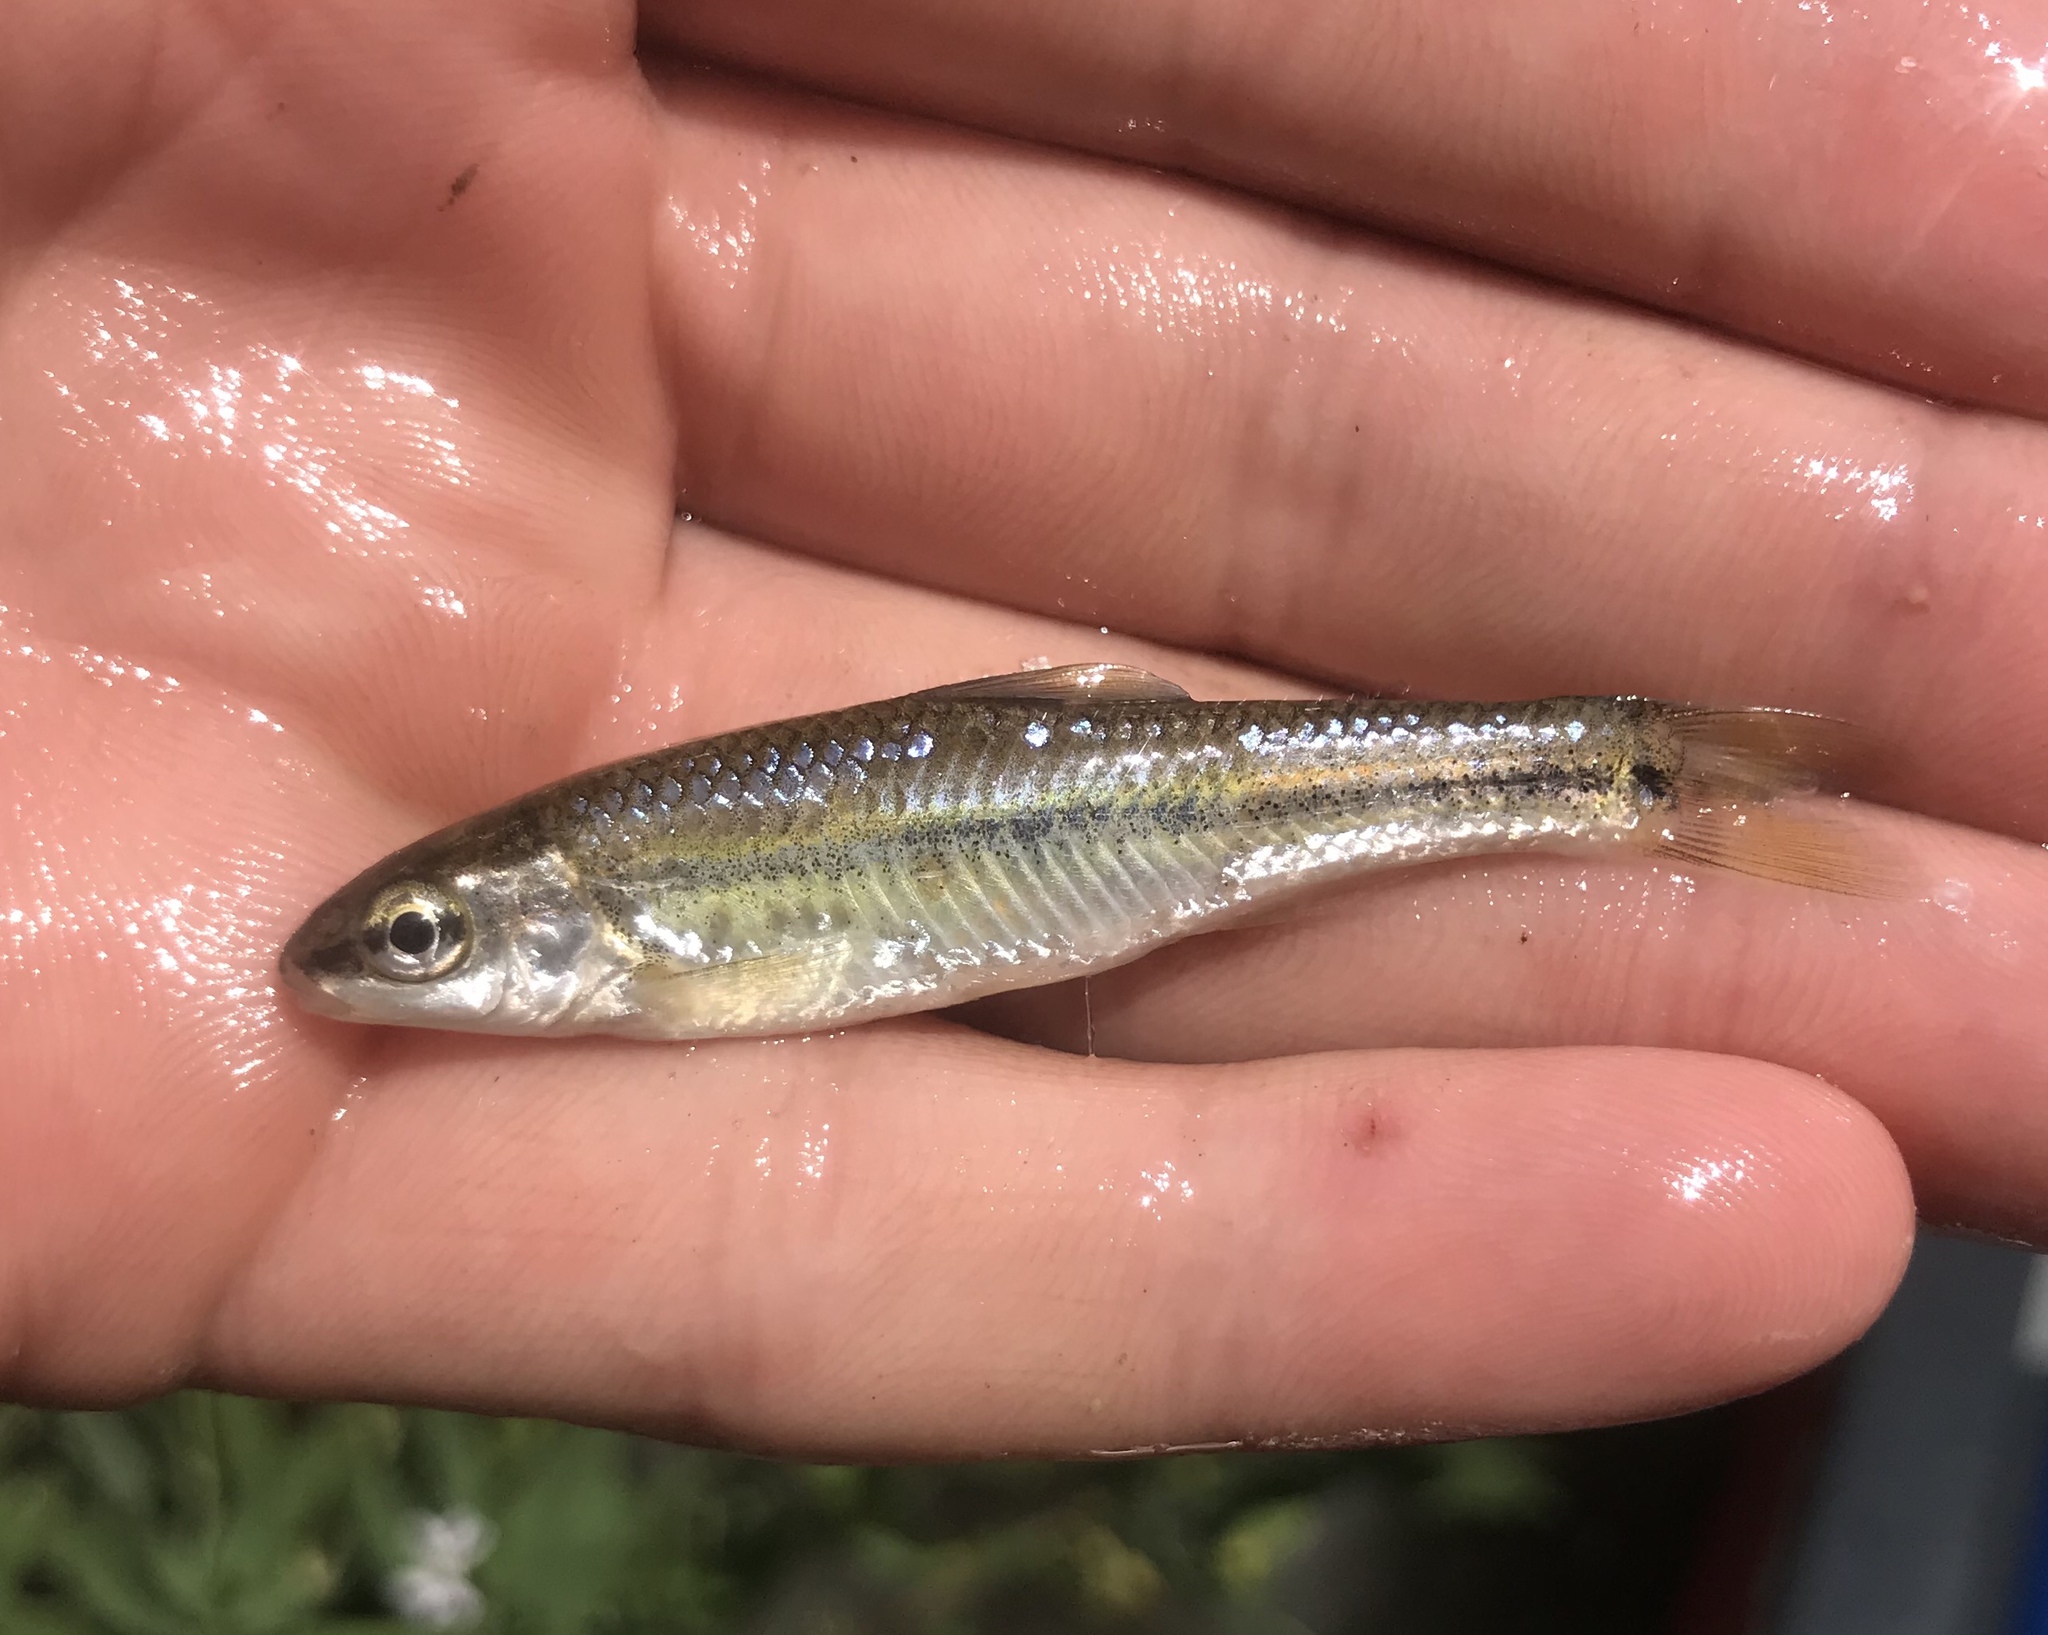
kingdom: Animalia
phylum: Chordata
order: Cypriniformes
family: Cyprinidae
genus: Dionda
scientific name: Dionda flavipinnis
